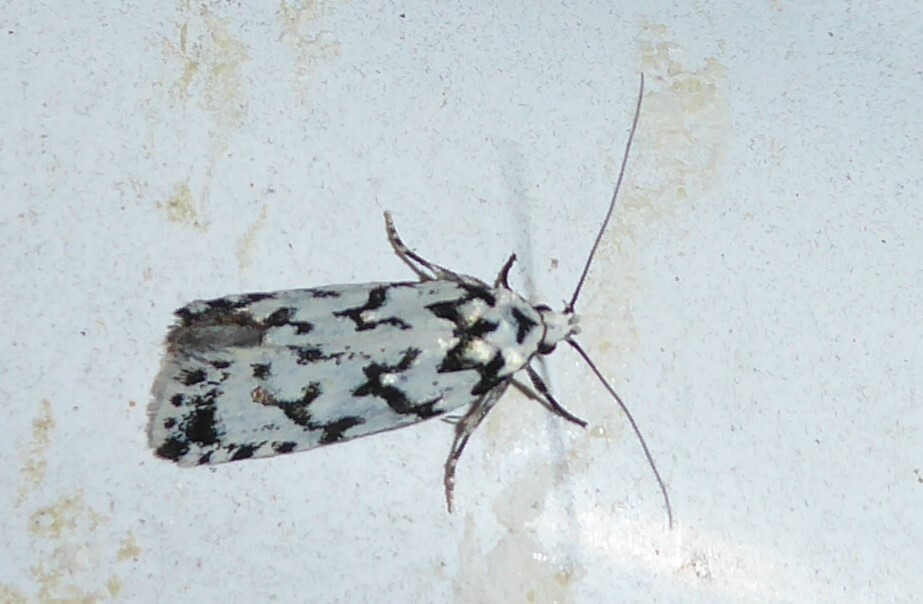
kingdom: Animalia
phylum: Arthropoda
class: Insecta
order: Lepidoptera
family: Oecophoridae
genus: Izatha
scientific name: Izatha katadiktya
